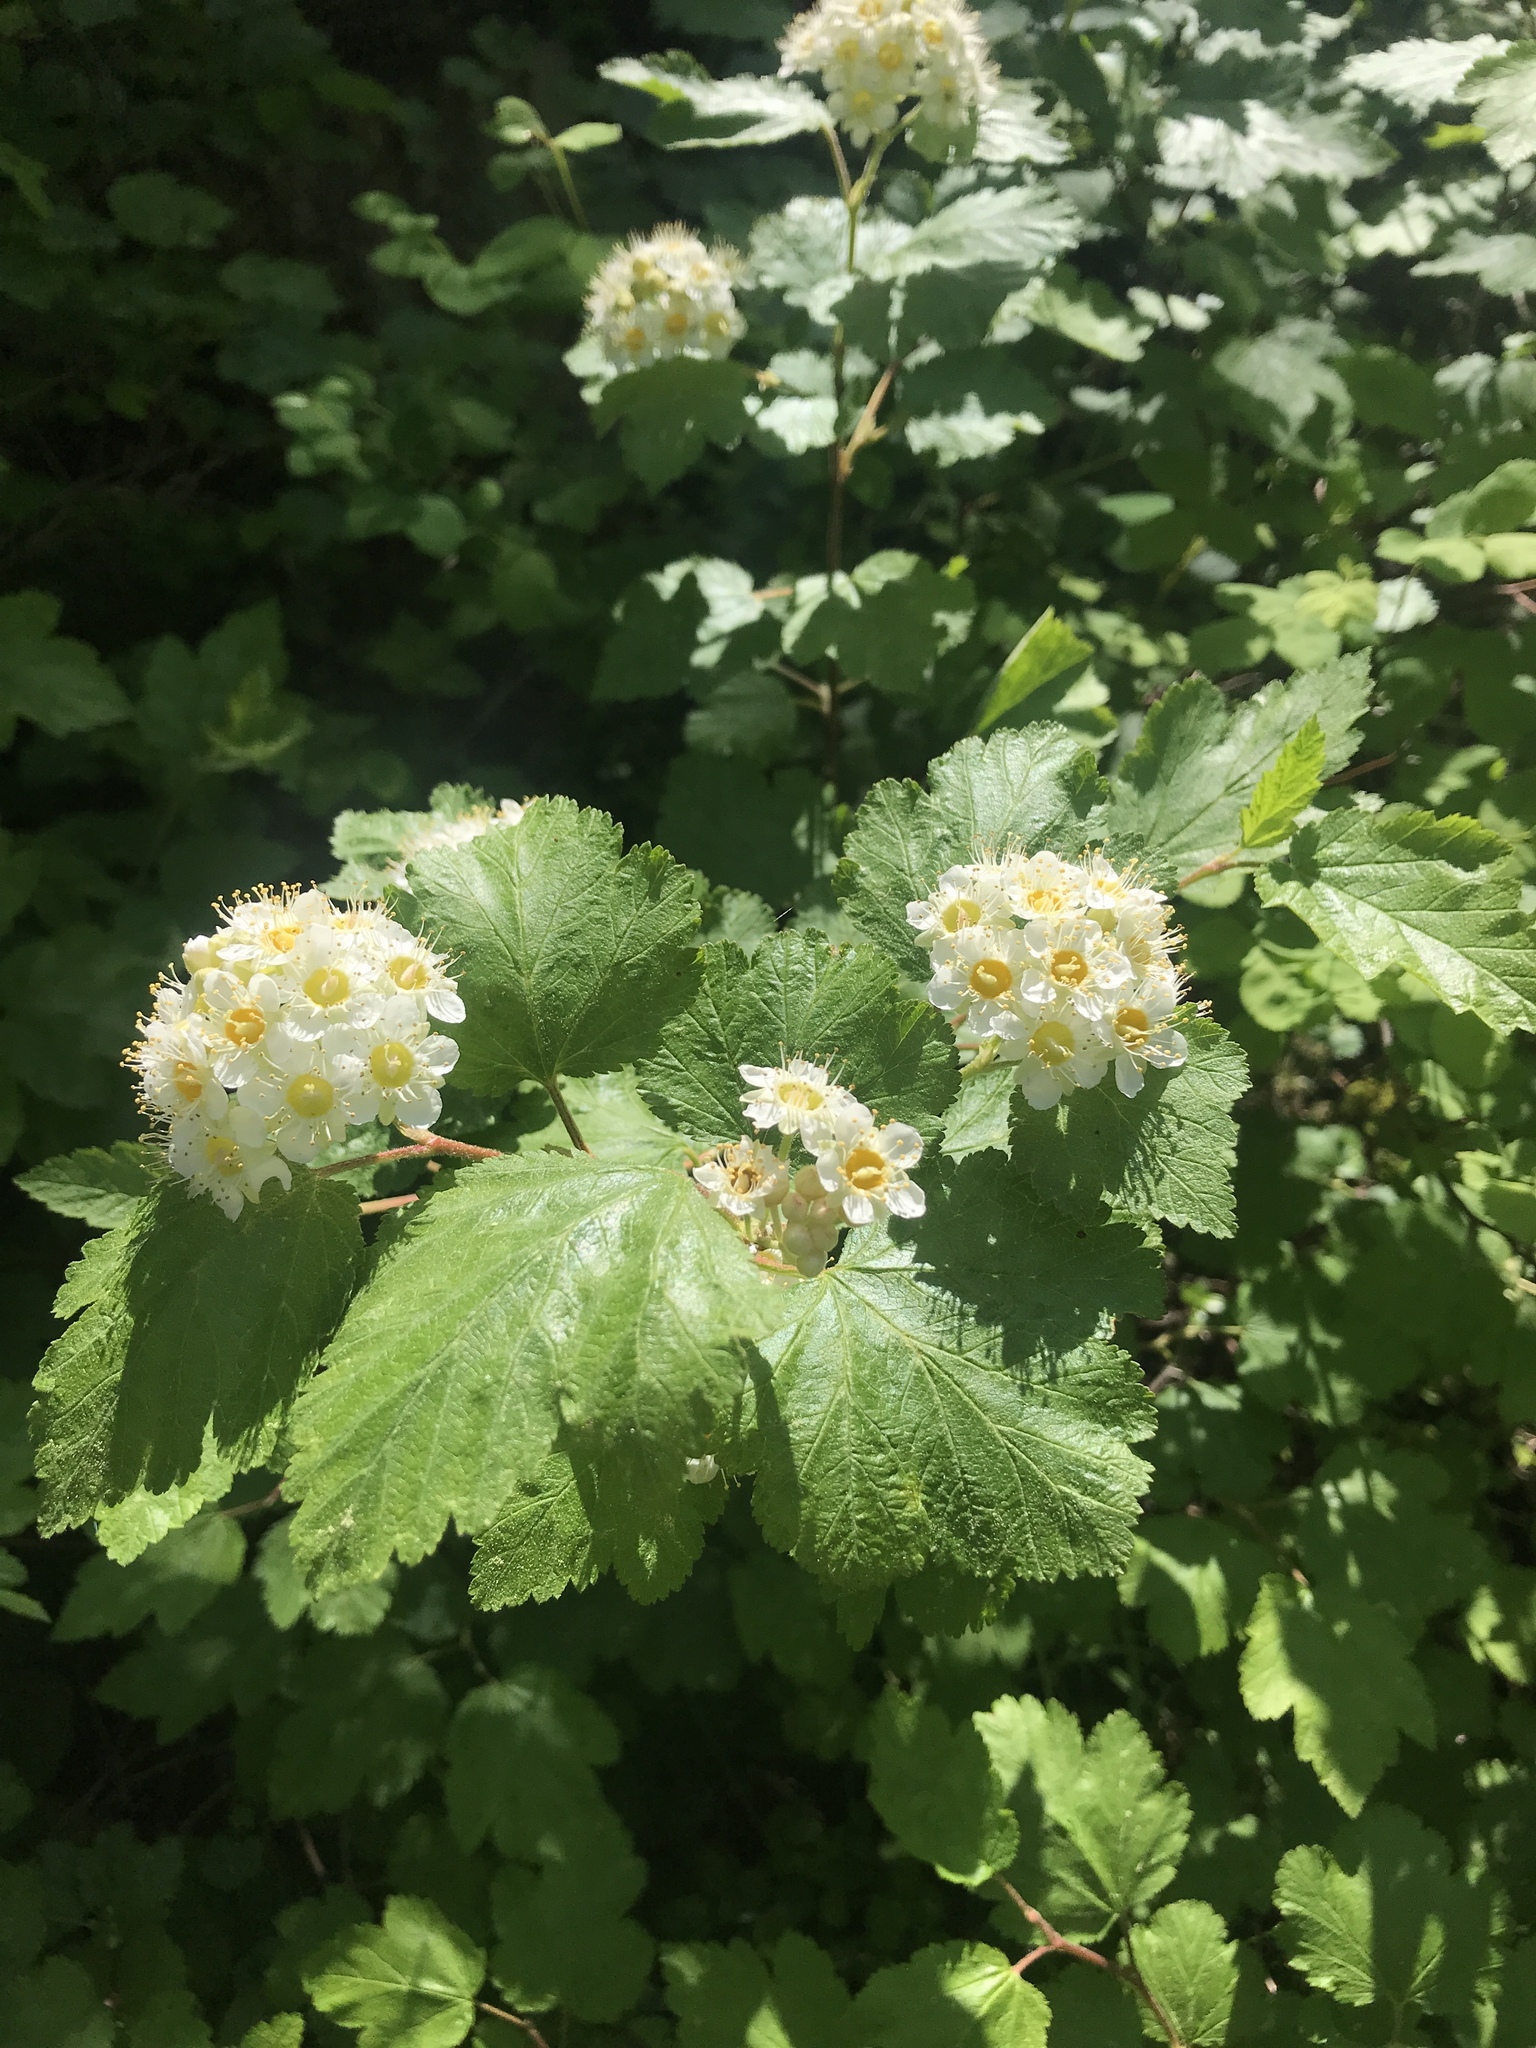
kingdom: Plantae
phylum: Tracheophyta
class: Magnoliopsida
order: Rosales
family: Rosaceae
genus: Physocarpus
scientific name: Physocarpus malvaceus
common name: Mallow ninebark
